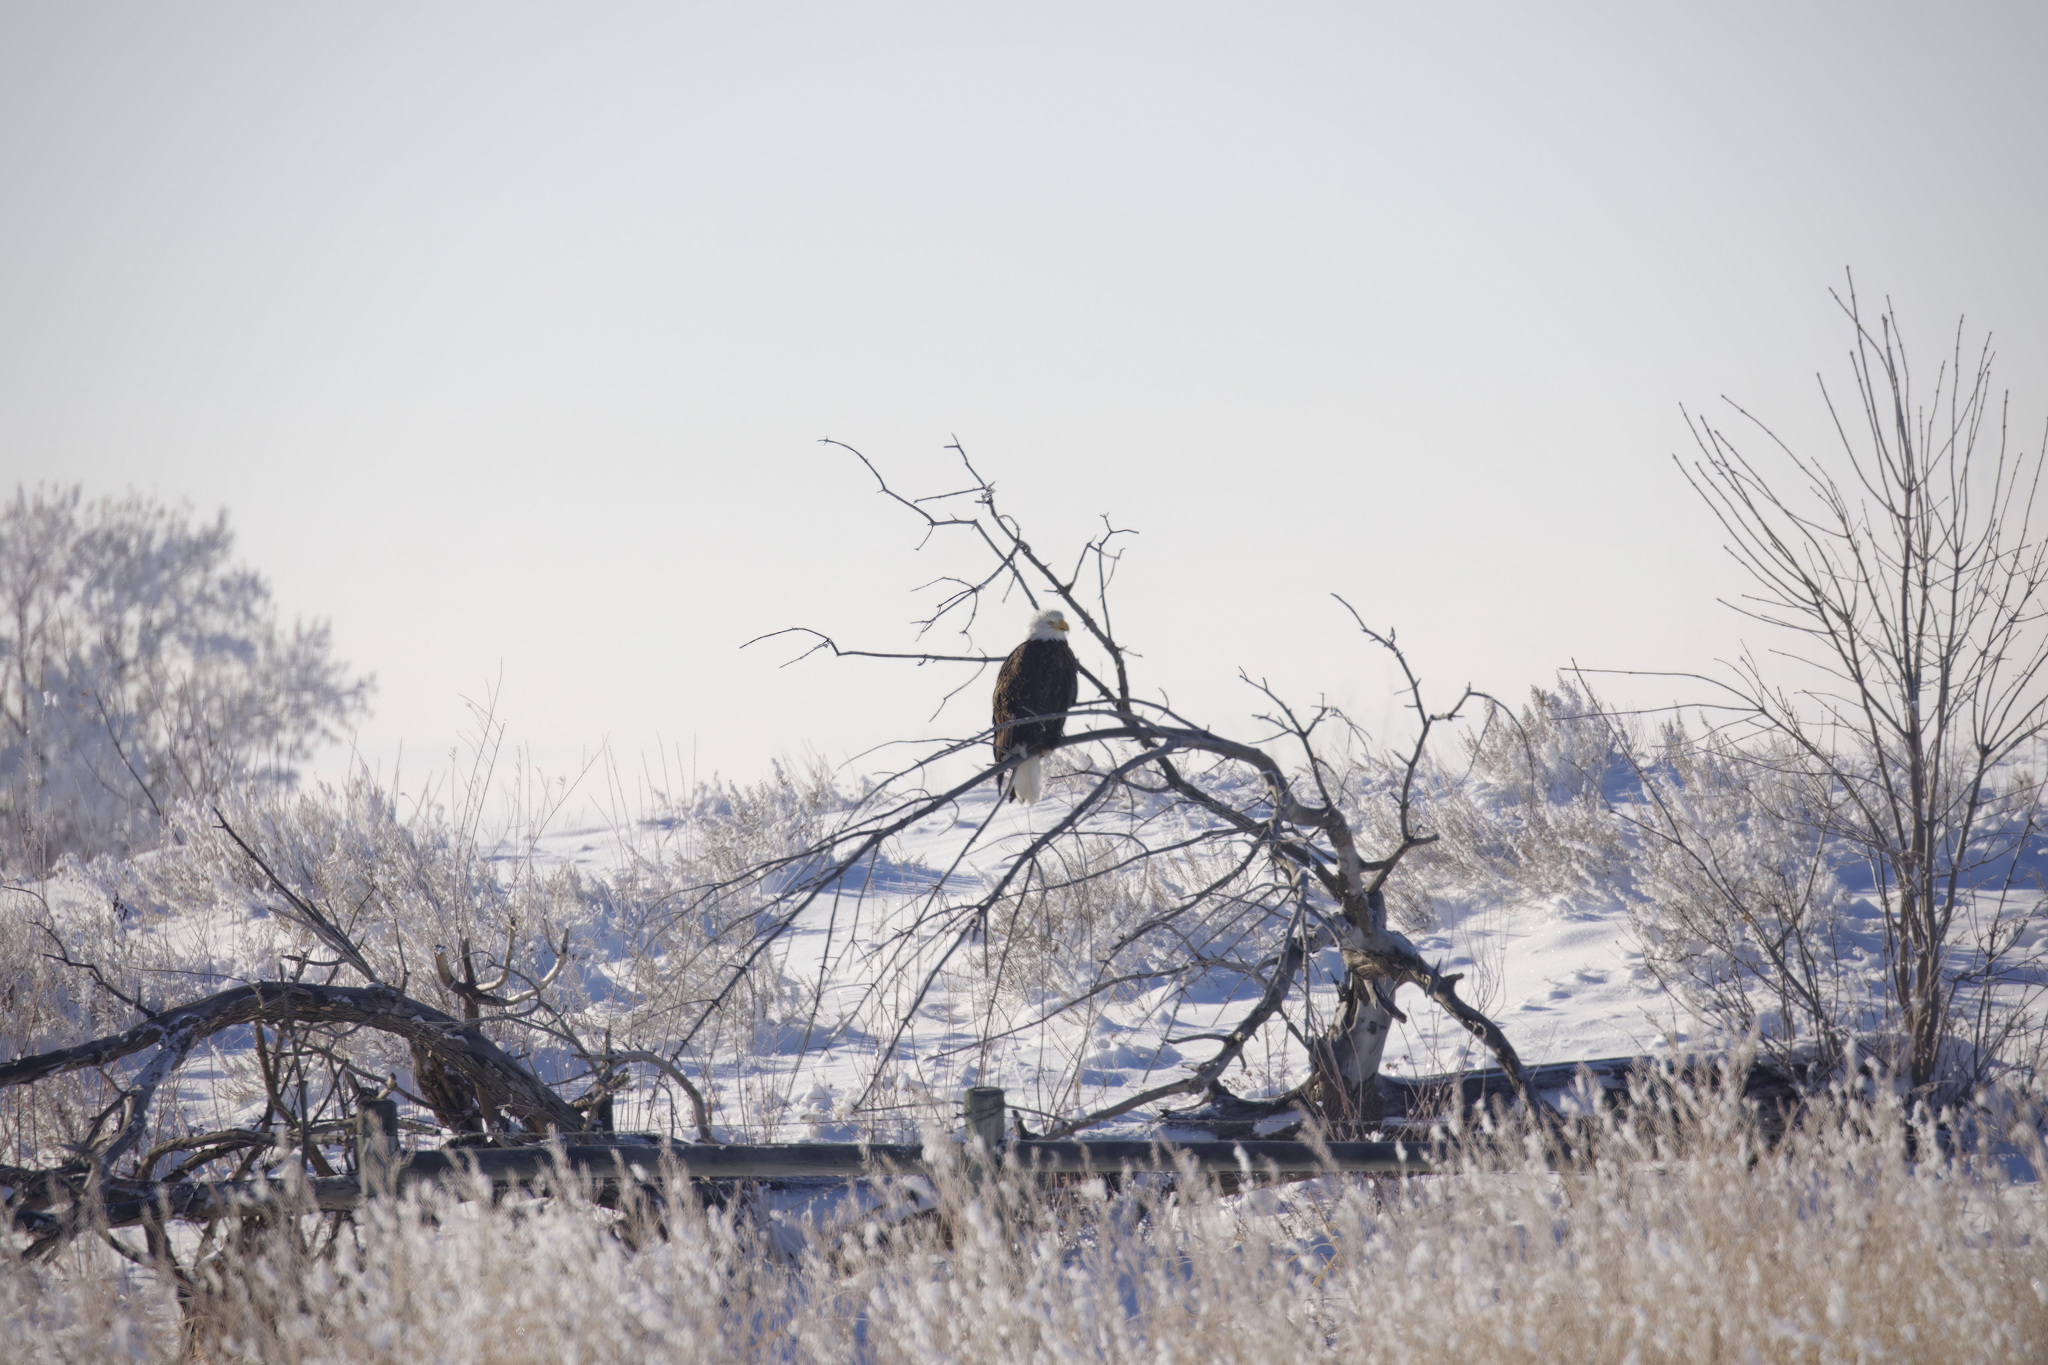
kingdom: Animalia
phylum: Chordata
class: Aves
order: Accipitriformes
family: Accipitridae
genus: Haliaeetus
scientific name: Haliaeetus leucocephalus
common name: Bald eagle
